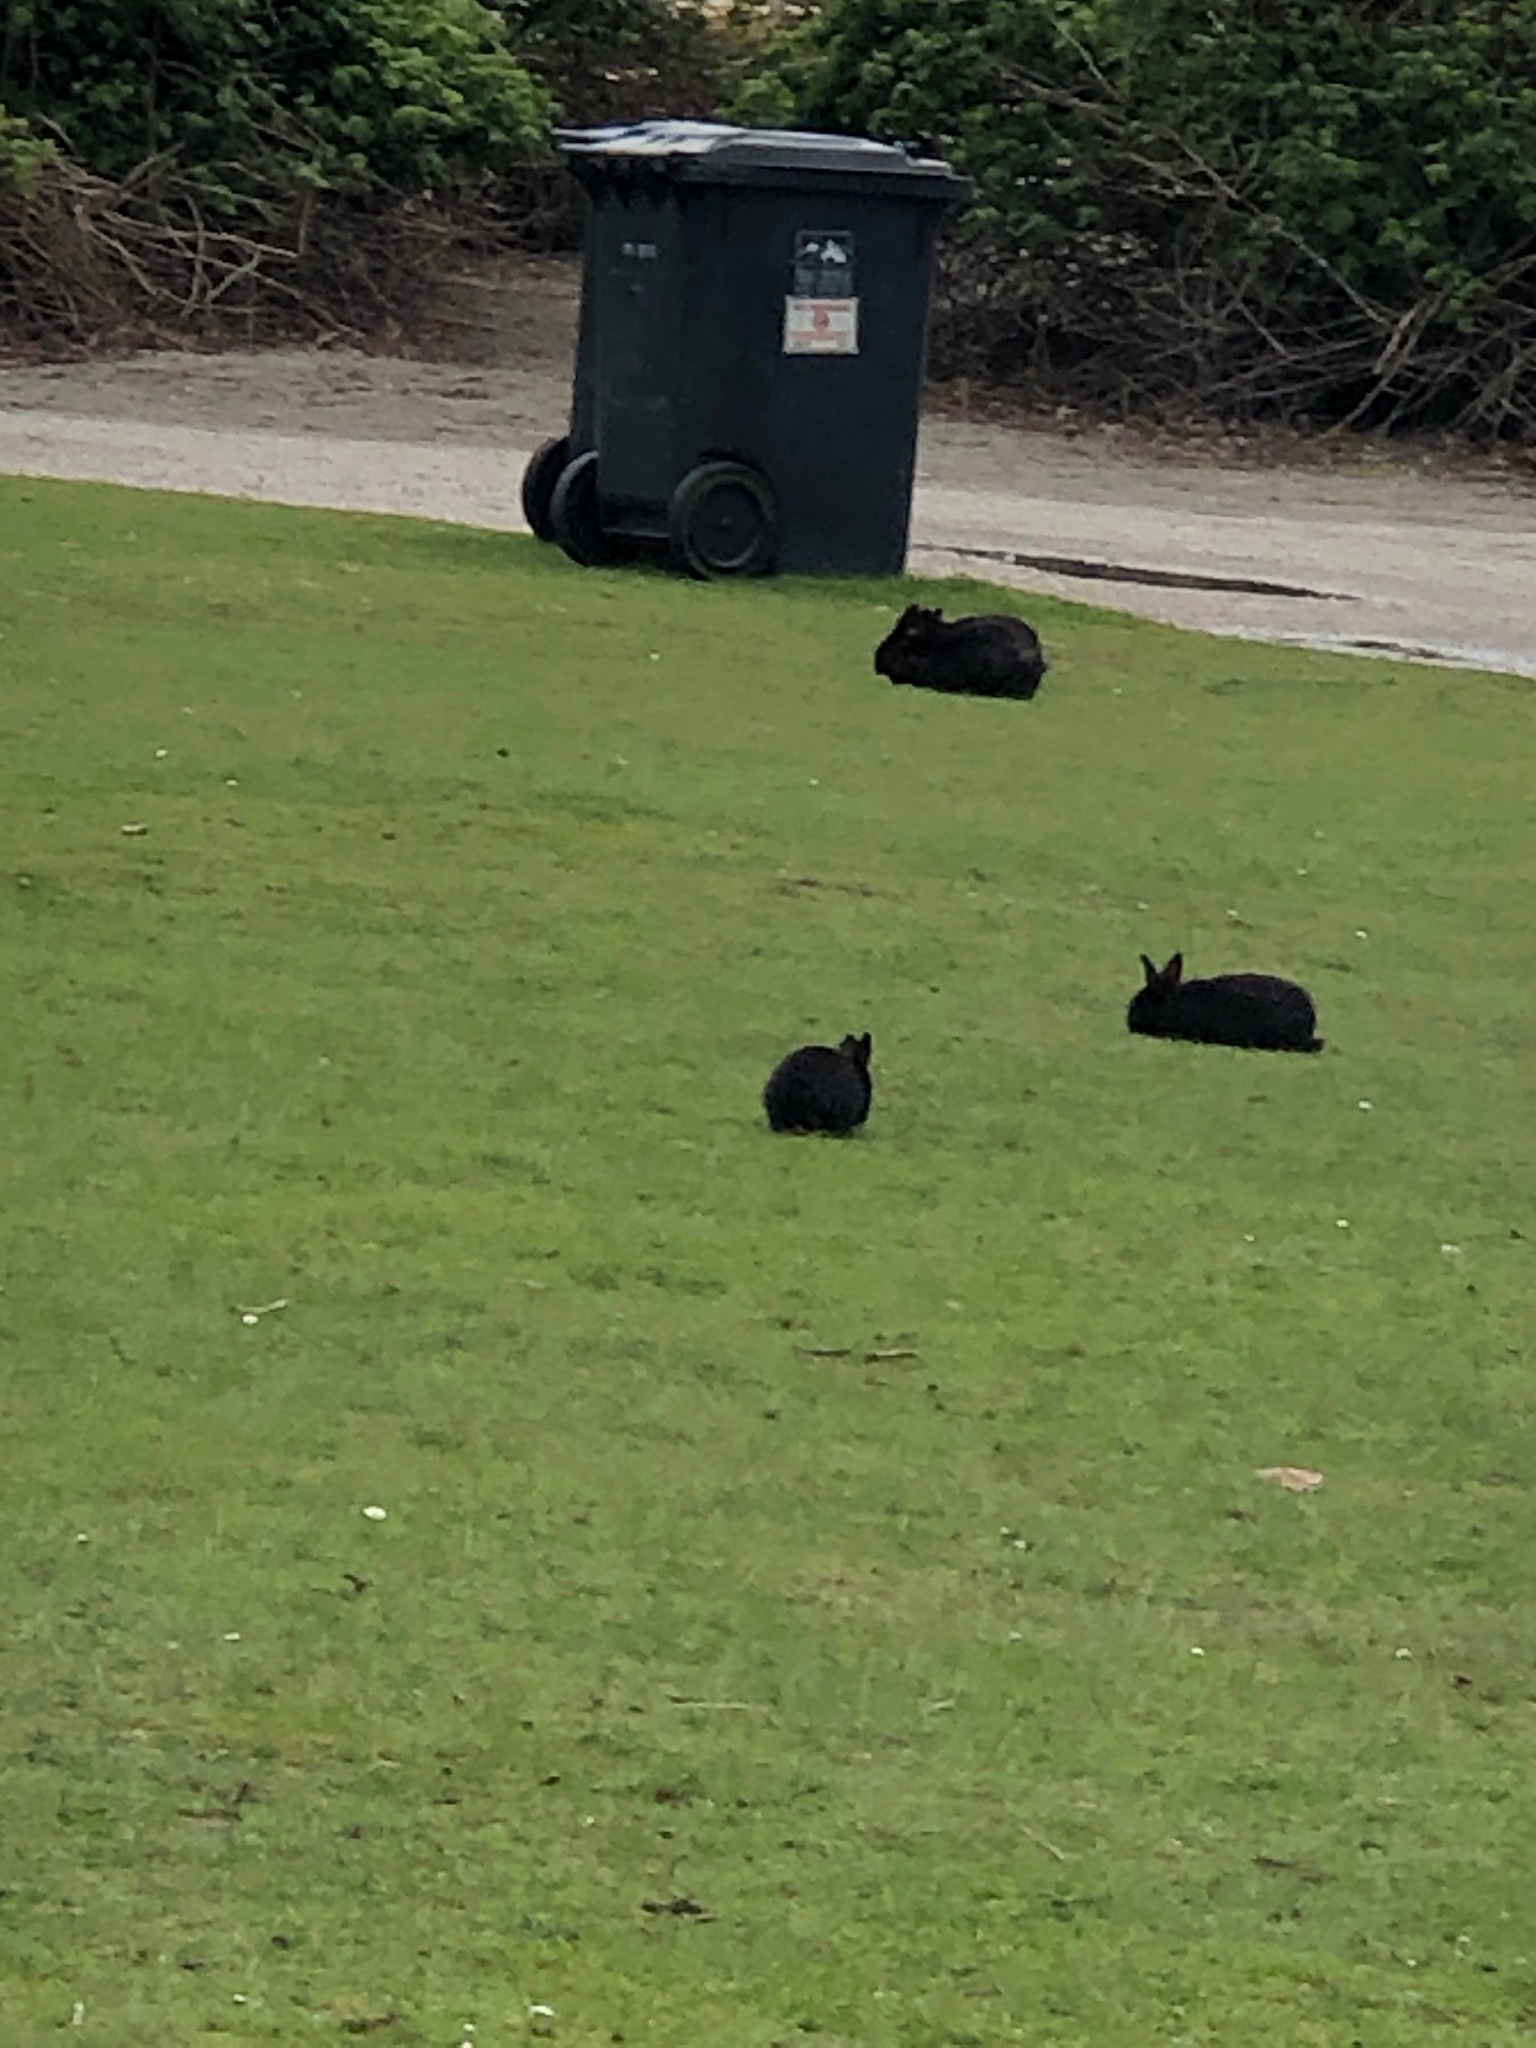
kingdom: Animalia
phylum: Chordata
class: Mammalia
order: Lagomorpha
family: Leporidae
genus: Oryctolagus
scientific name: Oryctolagus cuniculus
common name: European rabbit
